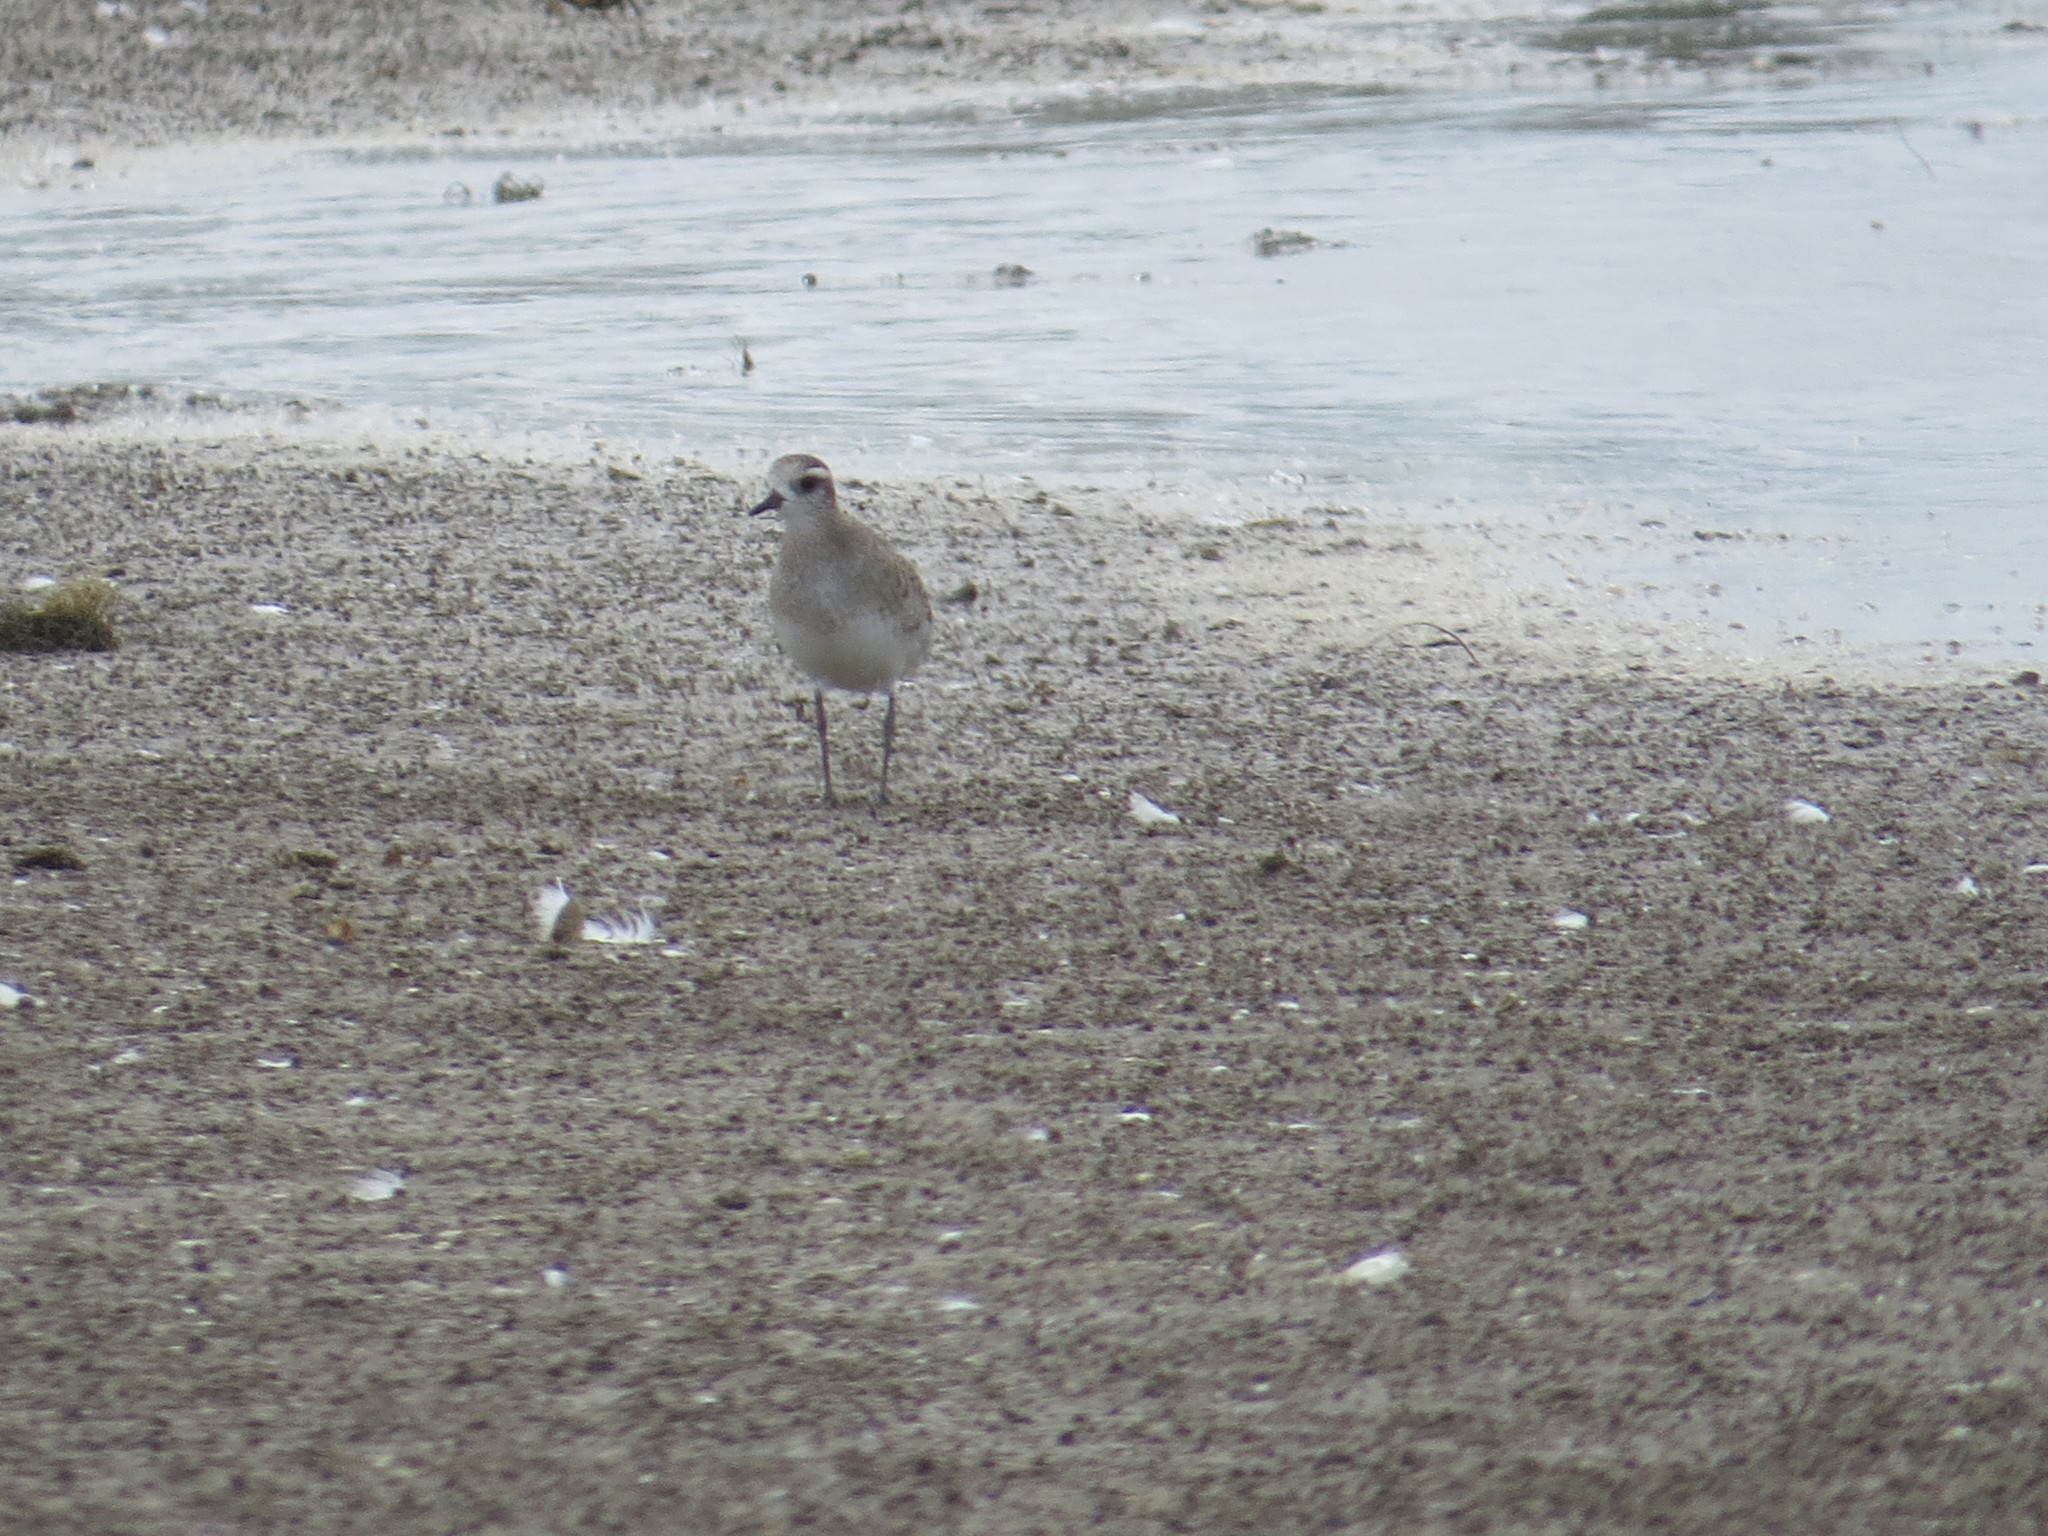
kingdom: Animalia
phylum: Chordata
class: Aves
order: Charadriiformes
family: Charadriidae
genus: Pluvialis
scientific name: Pluvialis dominica
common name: American golden plover
